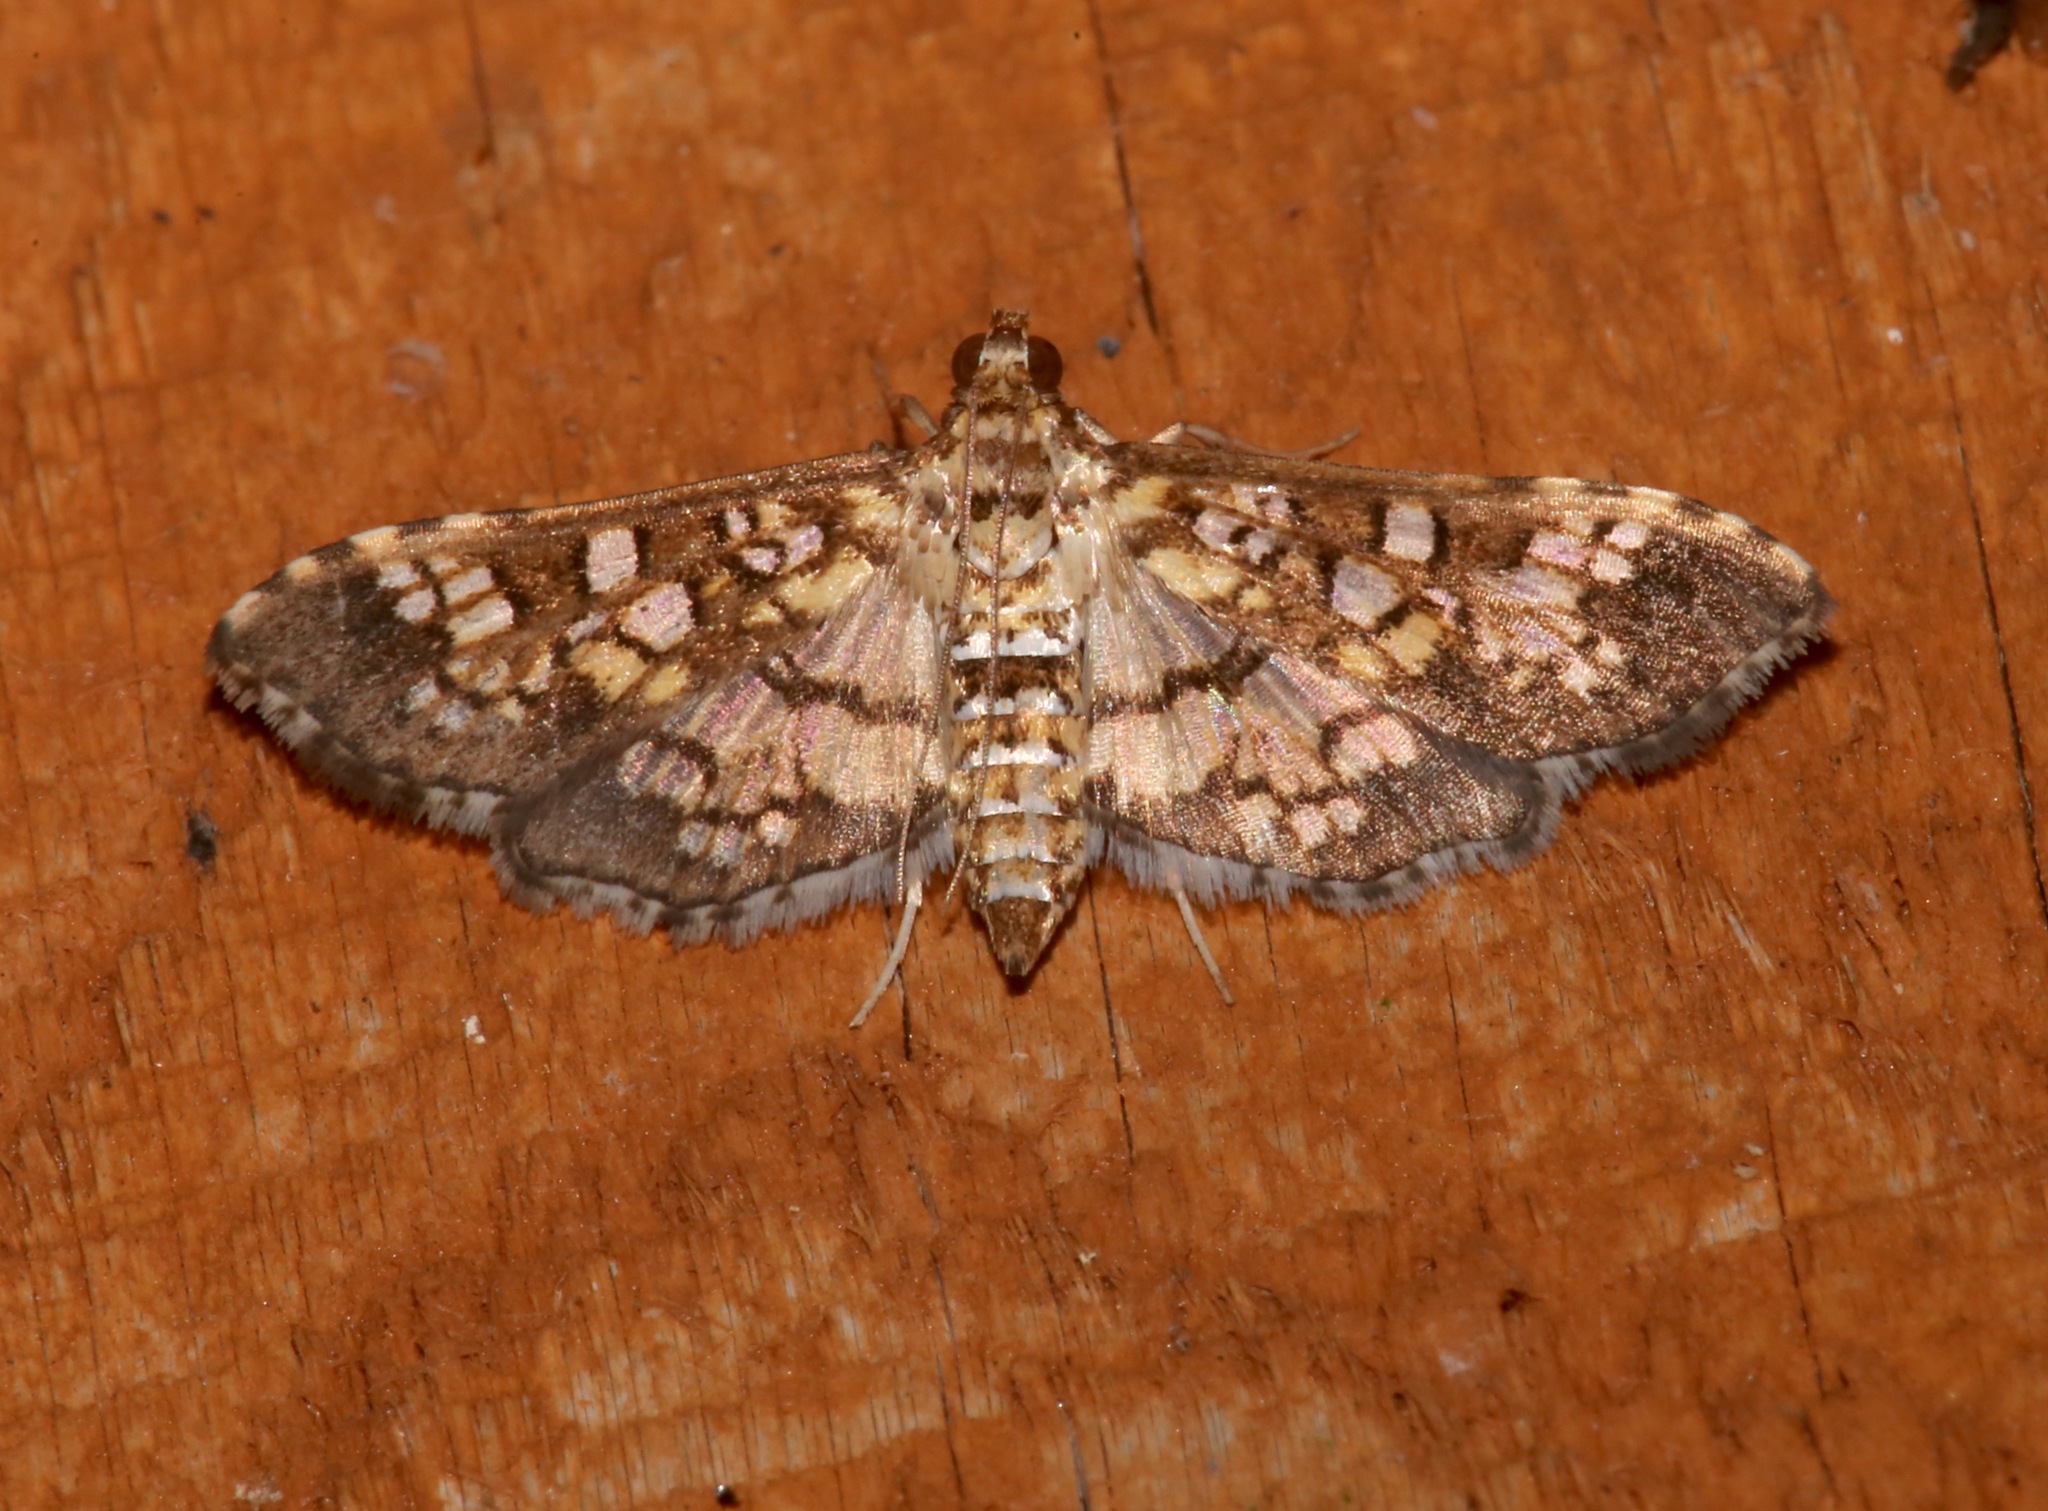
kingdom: Animalia
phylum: Arthropoda
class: Insecta
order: Lepidoptera
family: Crambidae
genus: Samea
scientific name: Samea ecclesialis
